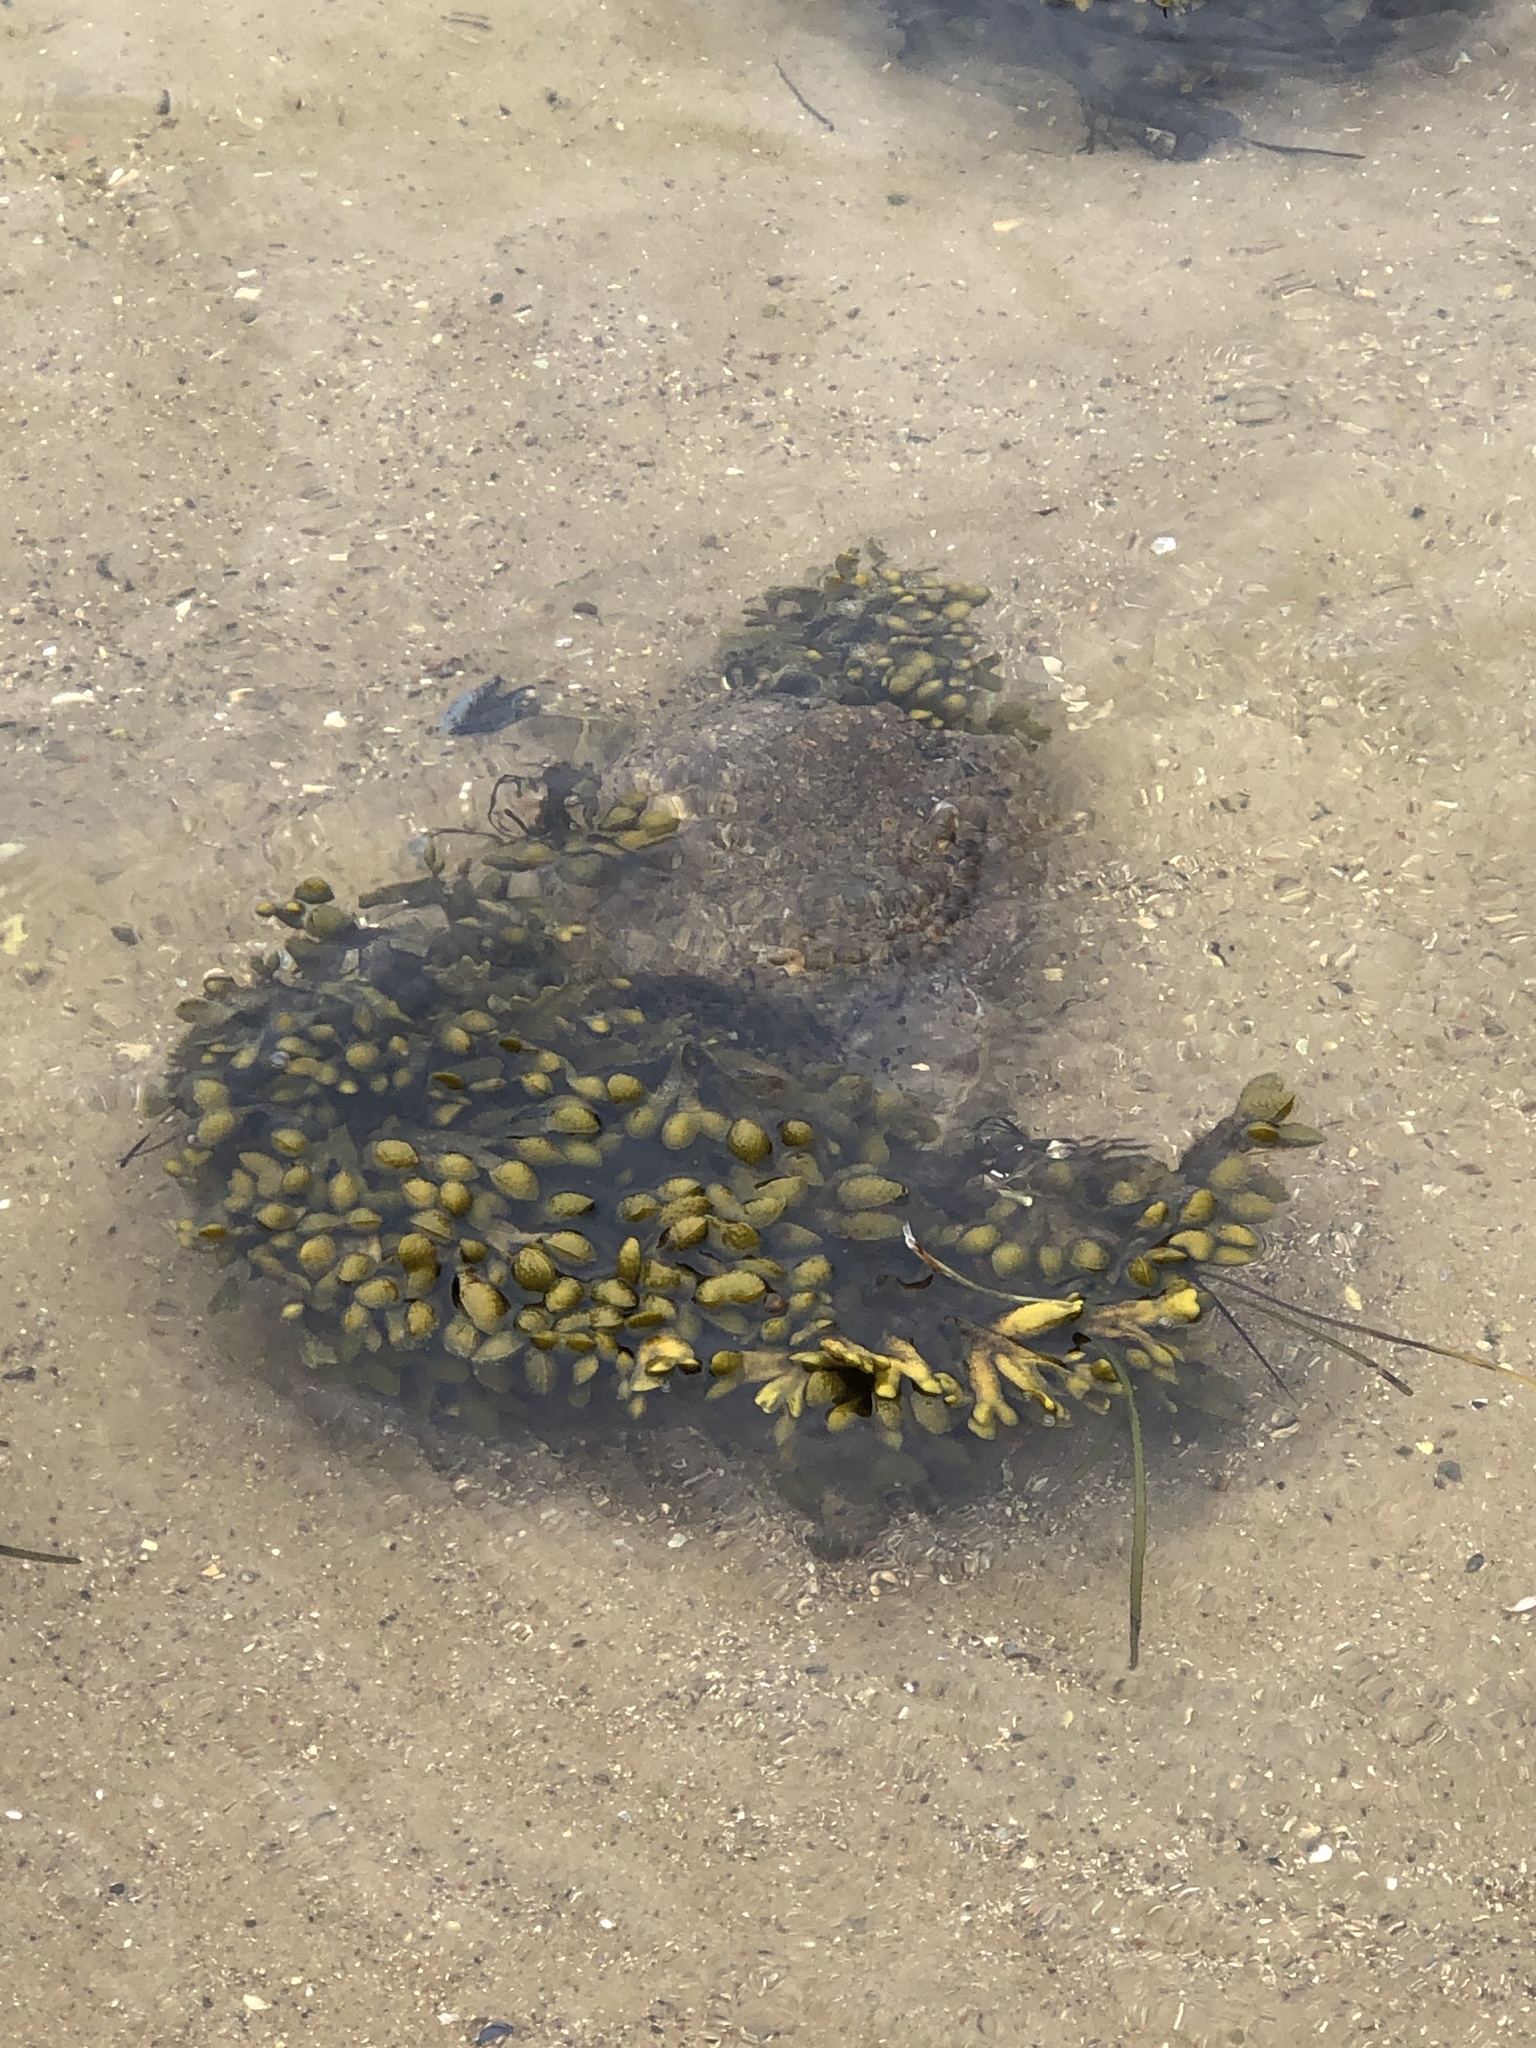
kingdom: Chromista
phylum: Ochrophyta
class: Phaeophyceae
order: Fucales
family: Fucaceae
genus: Fucus
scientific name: Fucus vesiculosus
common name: Bladder wrack
